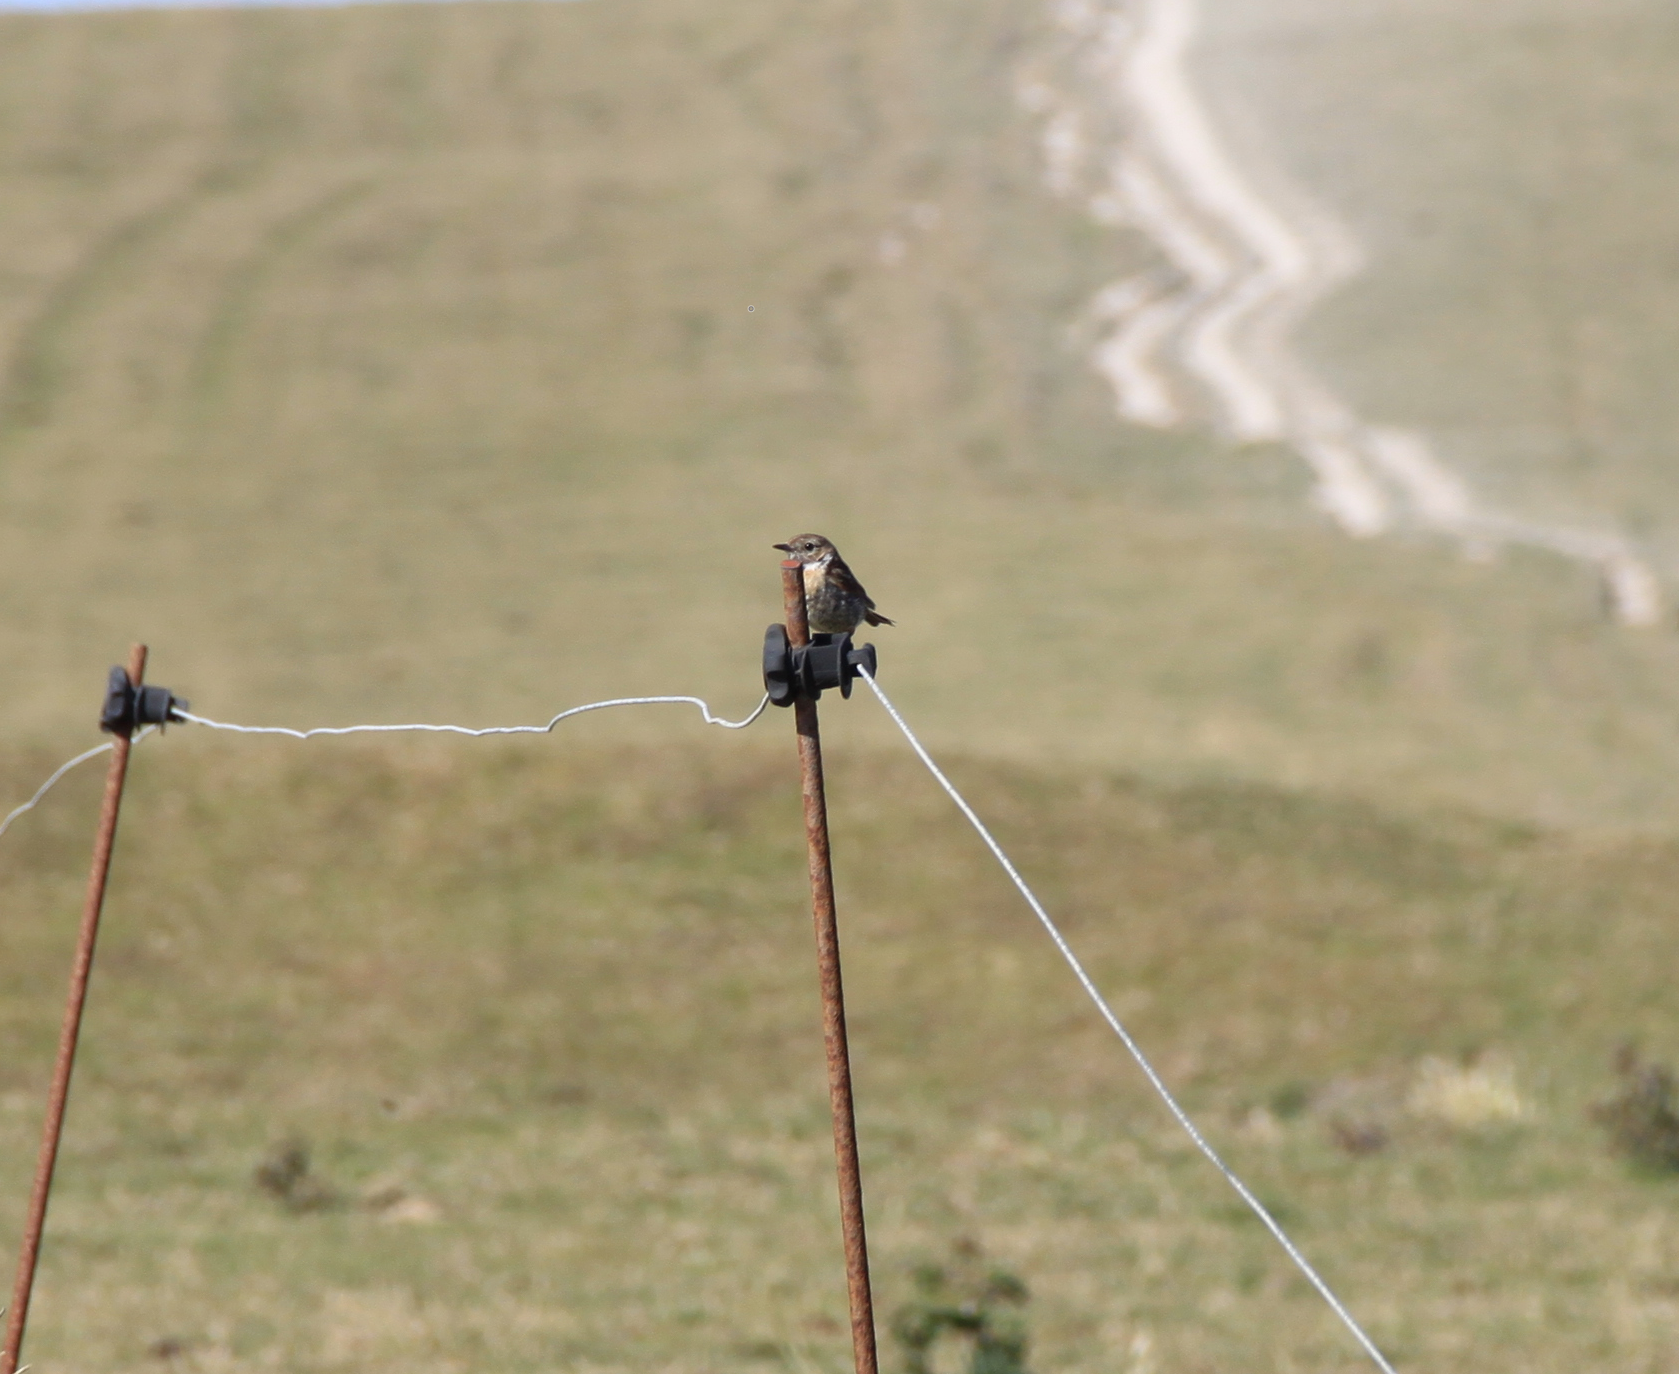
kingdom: Animalia
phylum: Chordata
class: Aves
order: Passeriformes
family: Muscicapidae
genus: Saxicola
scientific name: Saxicola rubicola
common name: European stonechat
